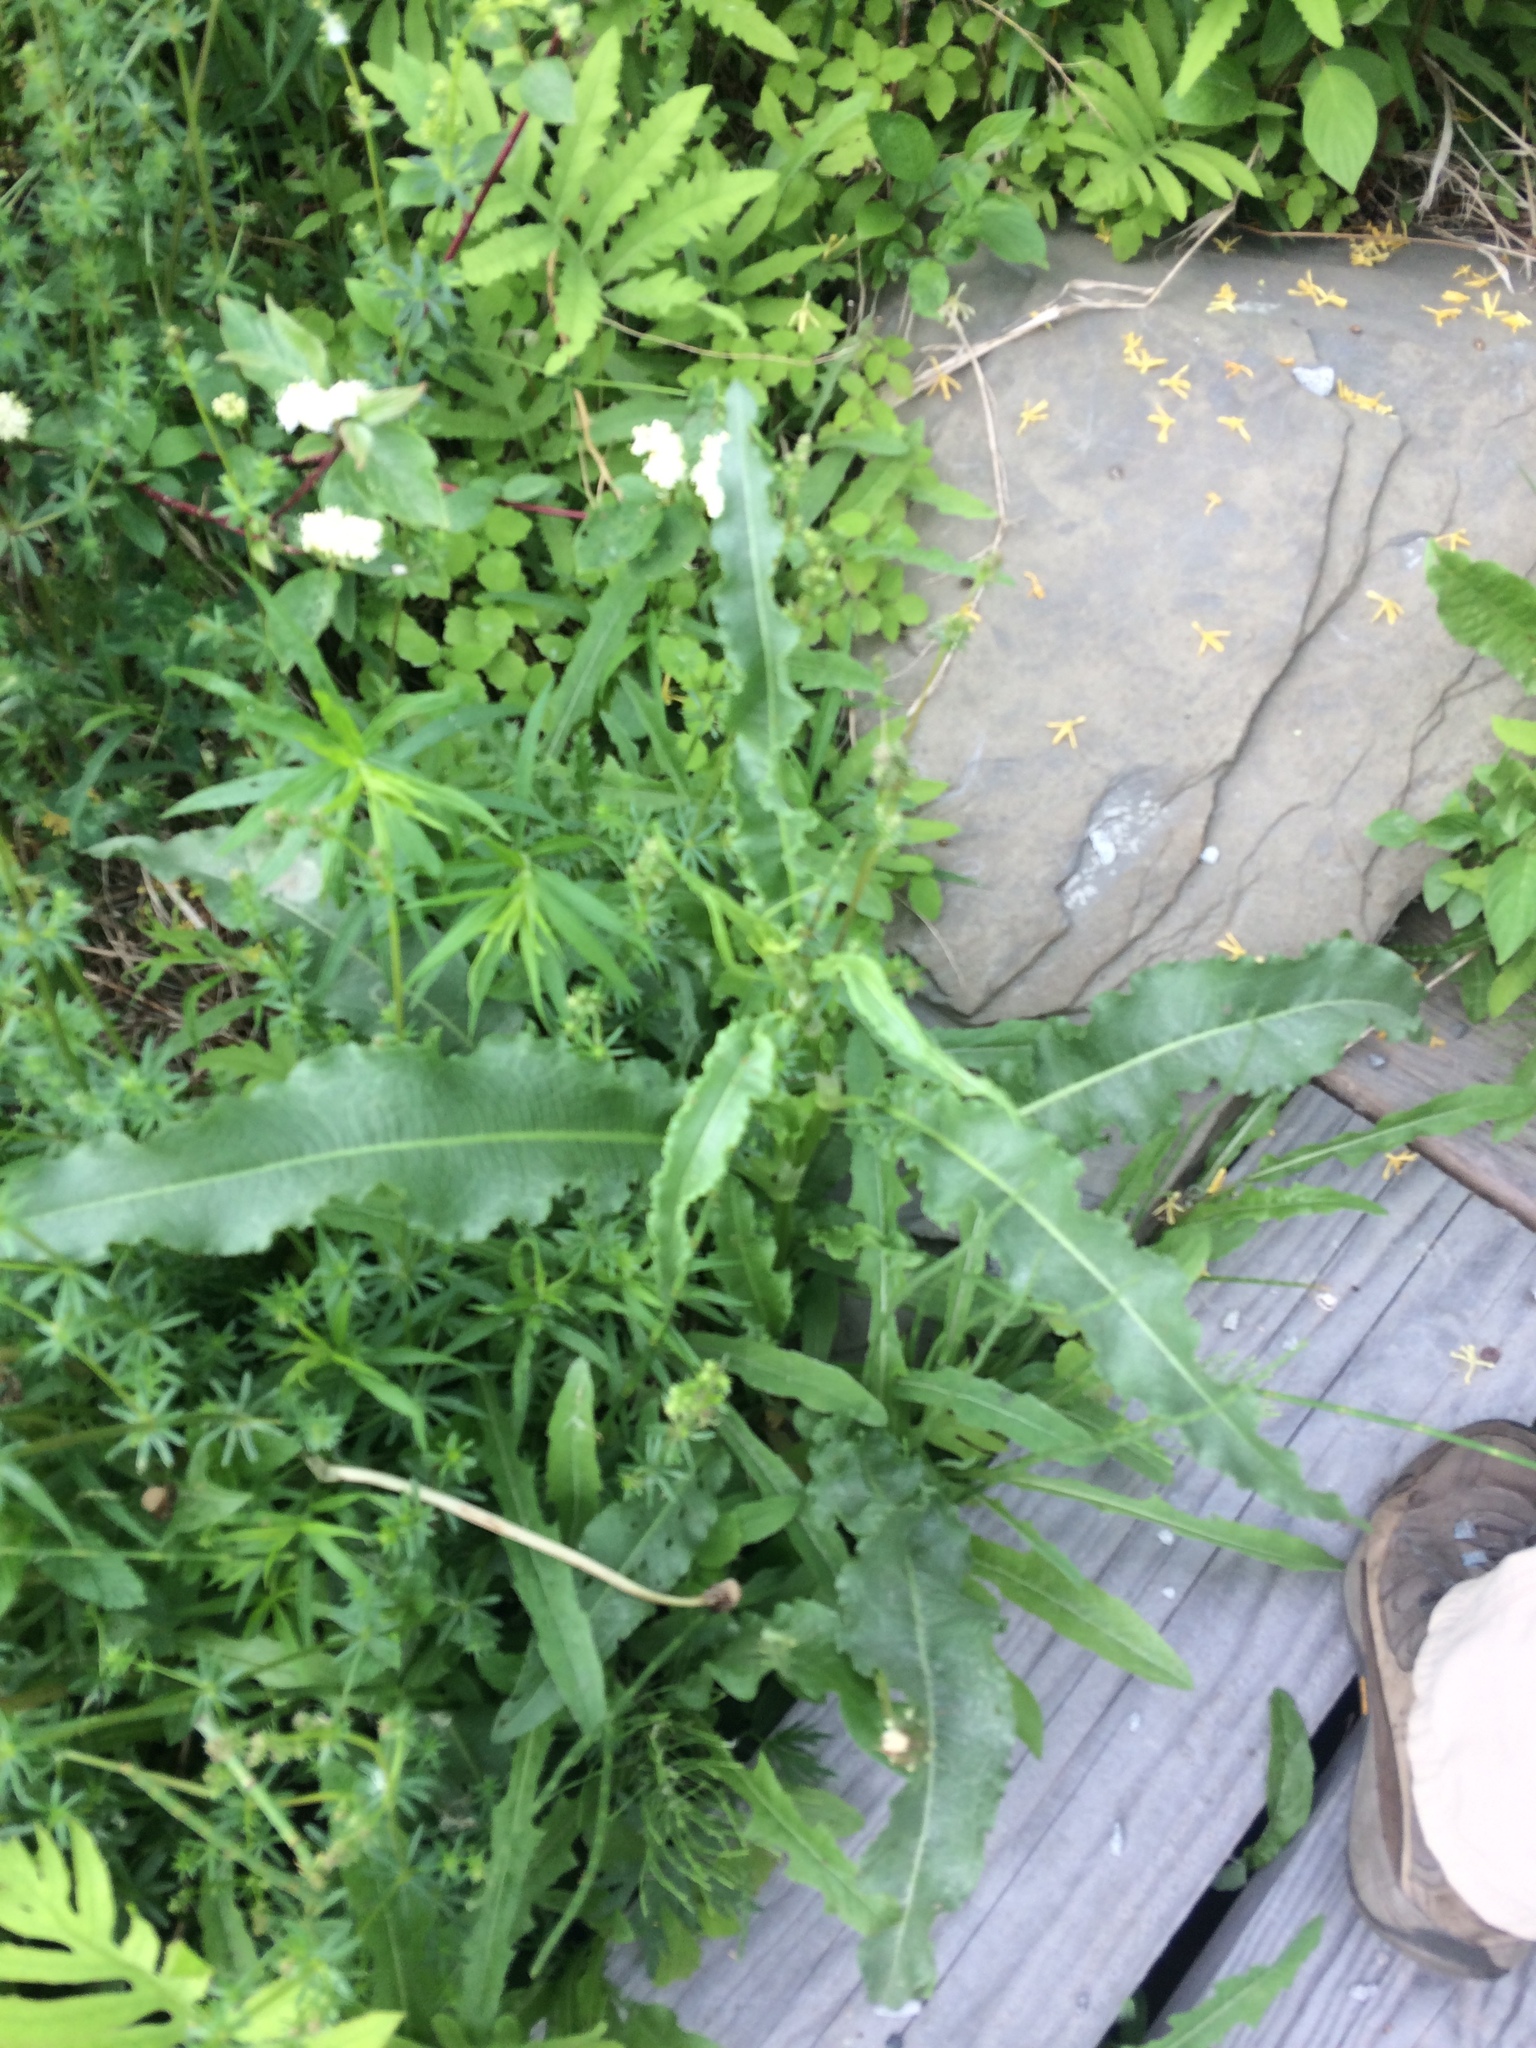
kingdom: Plantae
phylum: Tracheophyta
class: Magnoliopsida
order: Caryophyllales
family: Polygonaceae
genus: Rumex
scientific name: Rumex crispus
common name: Curled dock
